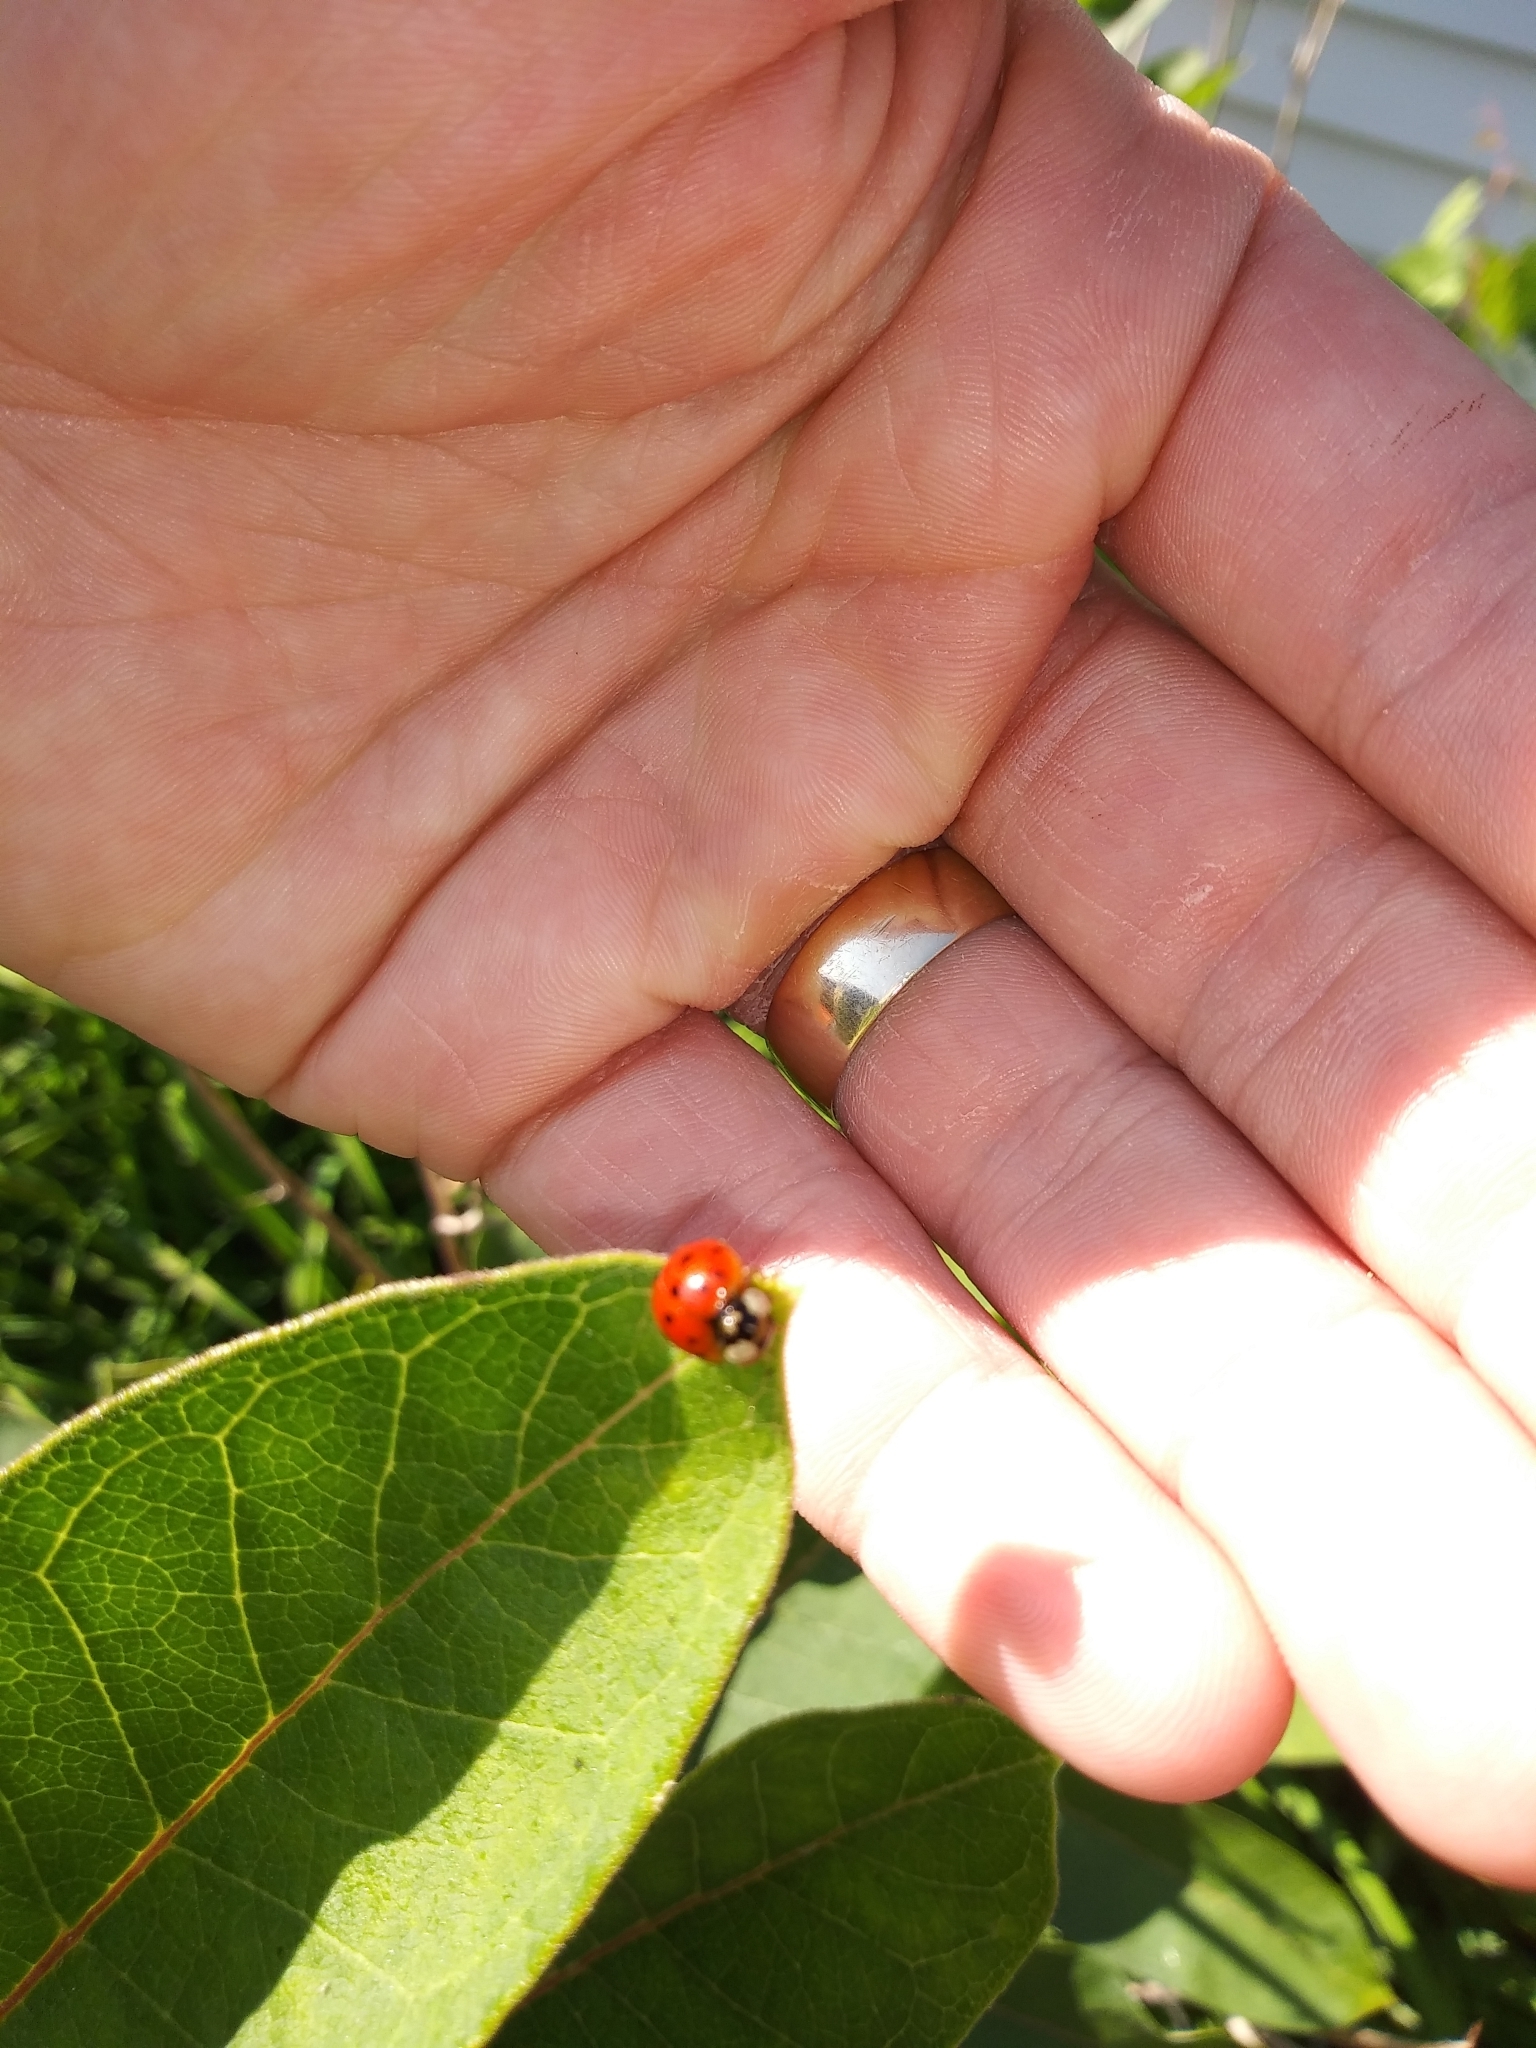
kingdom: Animalia
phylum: Arthropoda
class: Insecta
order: Coleoptera
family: Coccinellidae
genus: Harmonia
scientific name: Harmonia axyridis
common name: Harlequin ladybird
